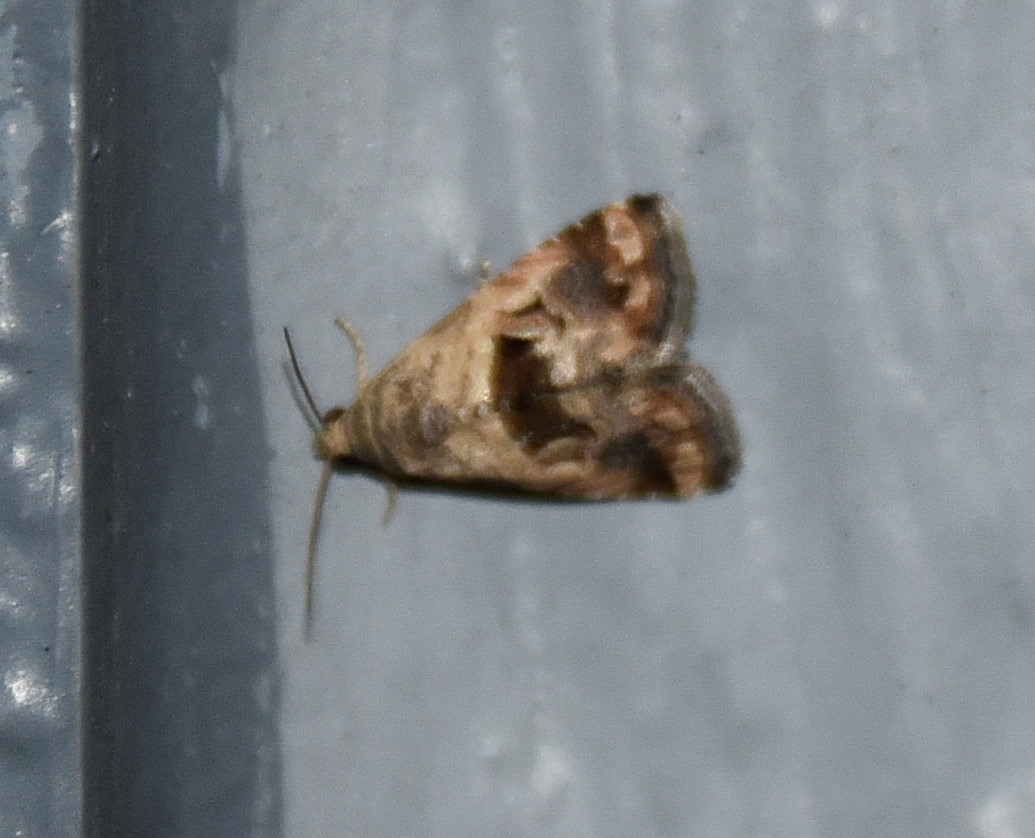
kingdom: Animalia
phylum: Arthropoda
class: Insecta
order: Lepidoptera
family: Noctuidae
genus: Tripudia
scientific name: Tripudia quadrifera
